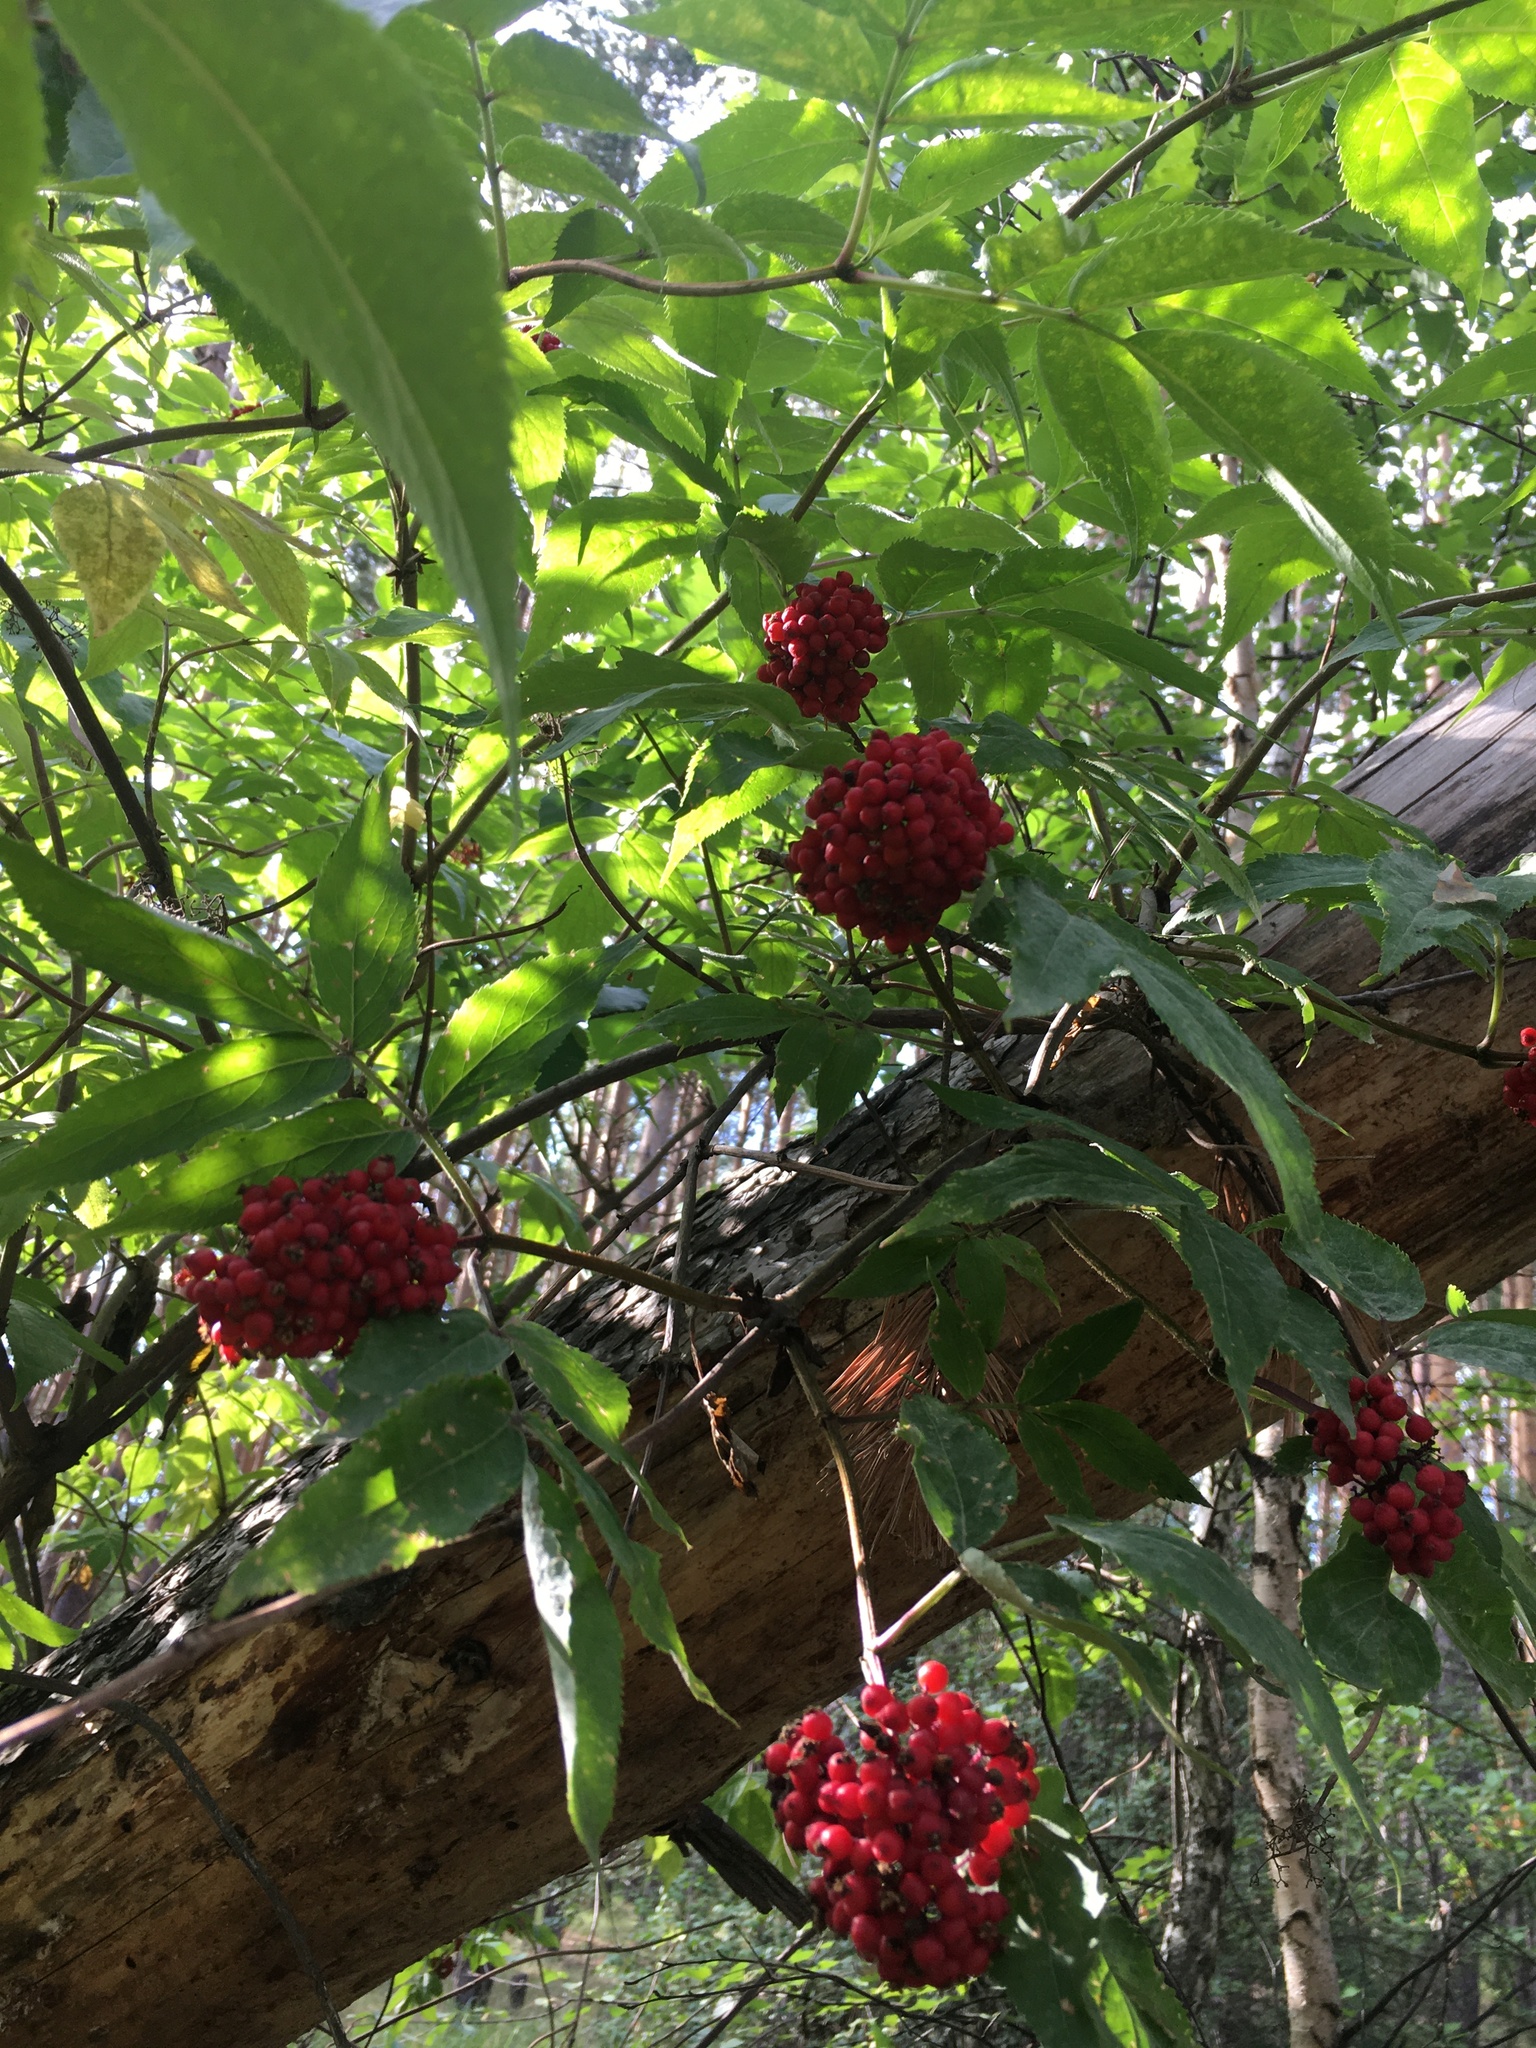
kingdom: Plantae
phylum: Tracheophyta
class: Magnoliopsida
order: Dipsacales
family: Viburnaceae
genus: Sambucus
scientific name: Sambucus racemosa
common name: Red-berried elder
